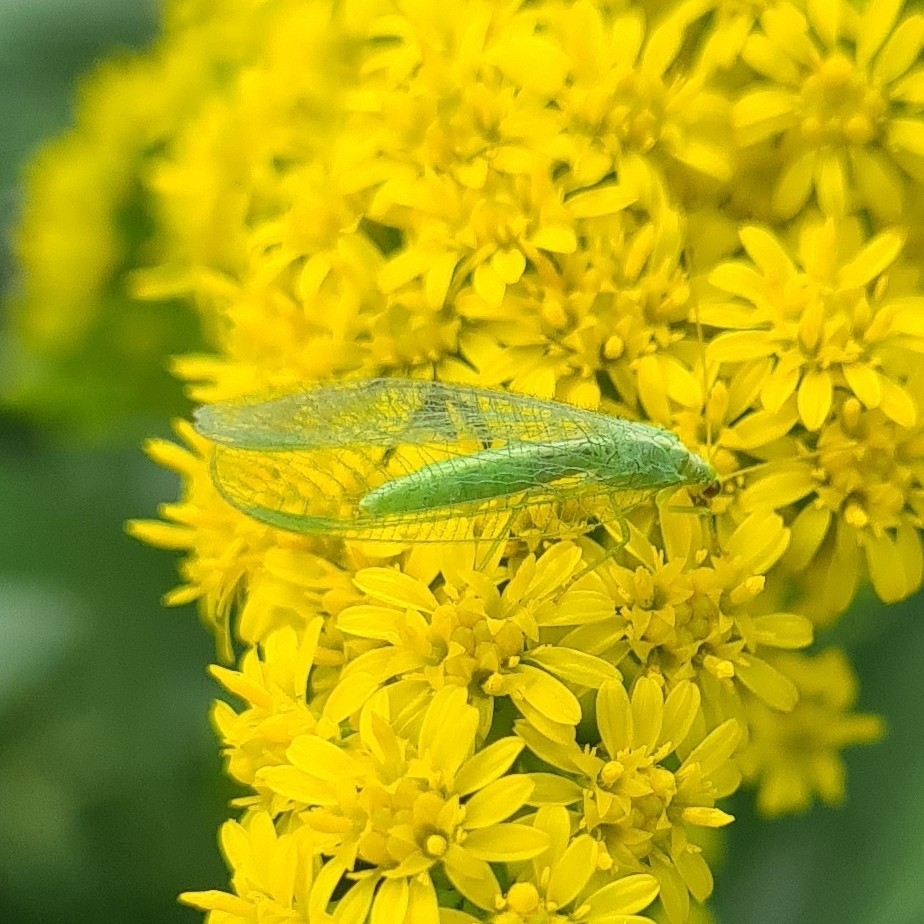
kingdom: Animalia
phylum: Arthropoda
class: Insecta
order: Neuroptera
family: Chrysopidae
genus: Chrysoperla
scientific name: Chrysoperla
